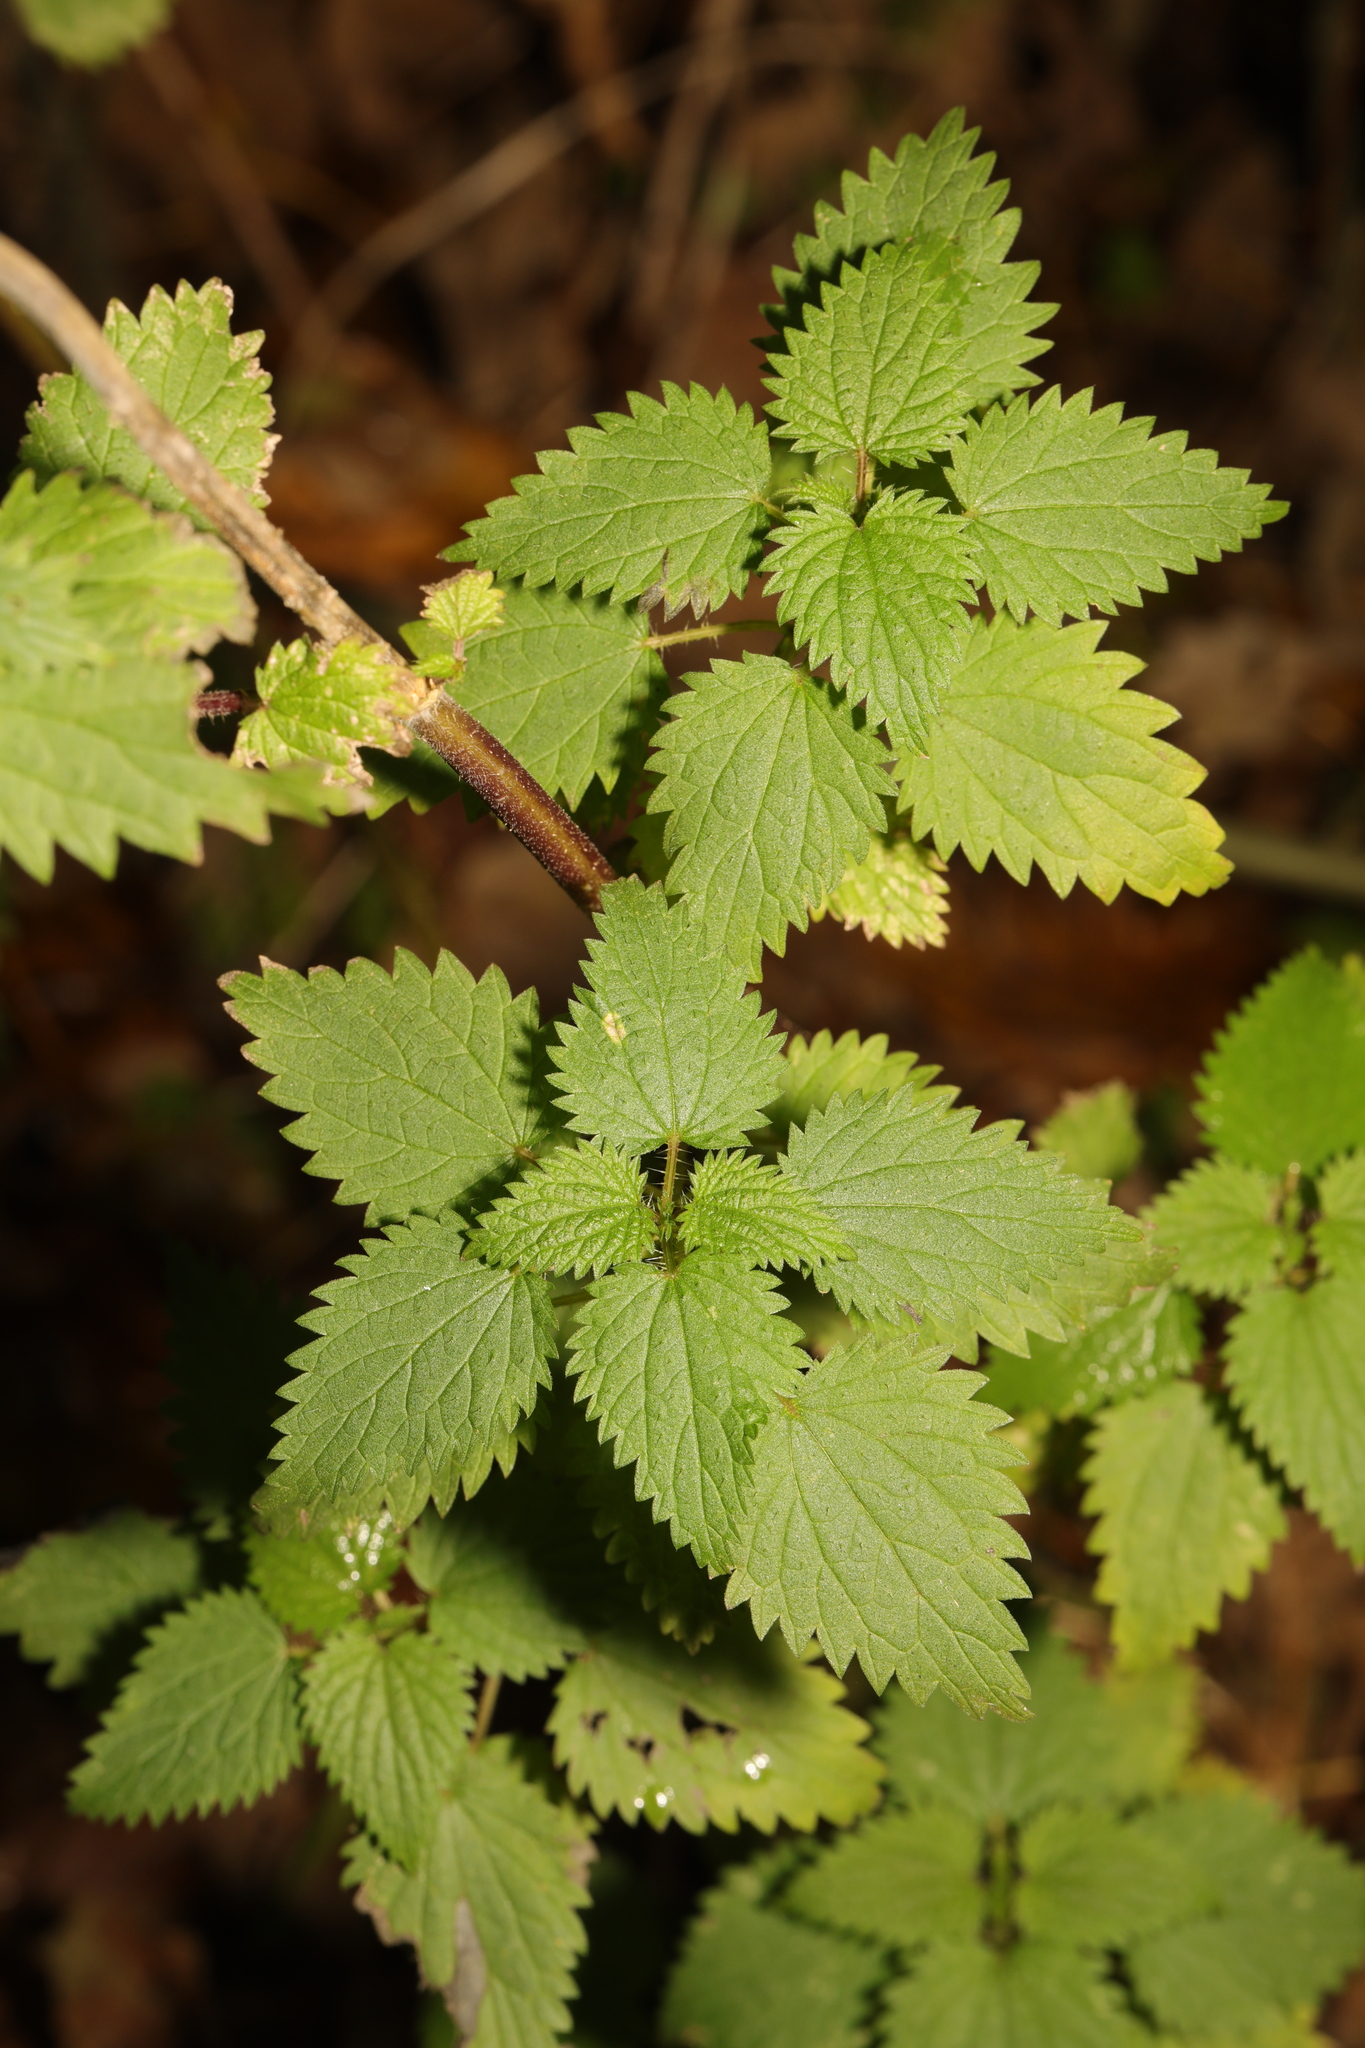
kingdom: Plantae
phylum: Tracheophyta
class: Magnoliopsida
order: Rosales
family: Urticaceae
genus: Urtica
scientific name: Urtica dioica
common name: Common nettle
